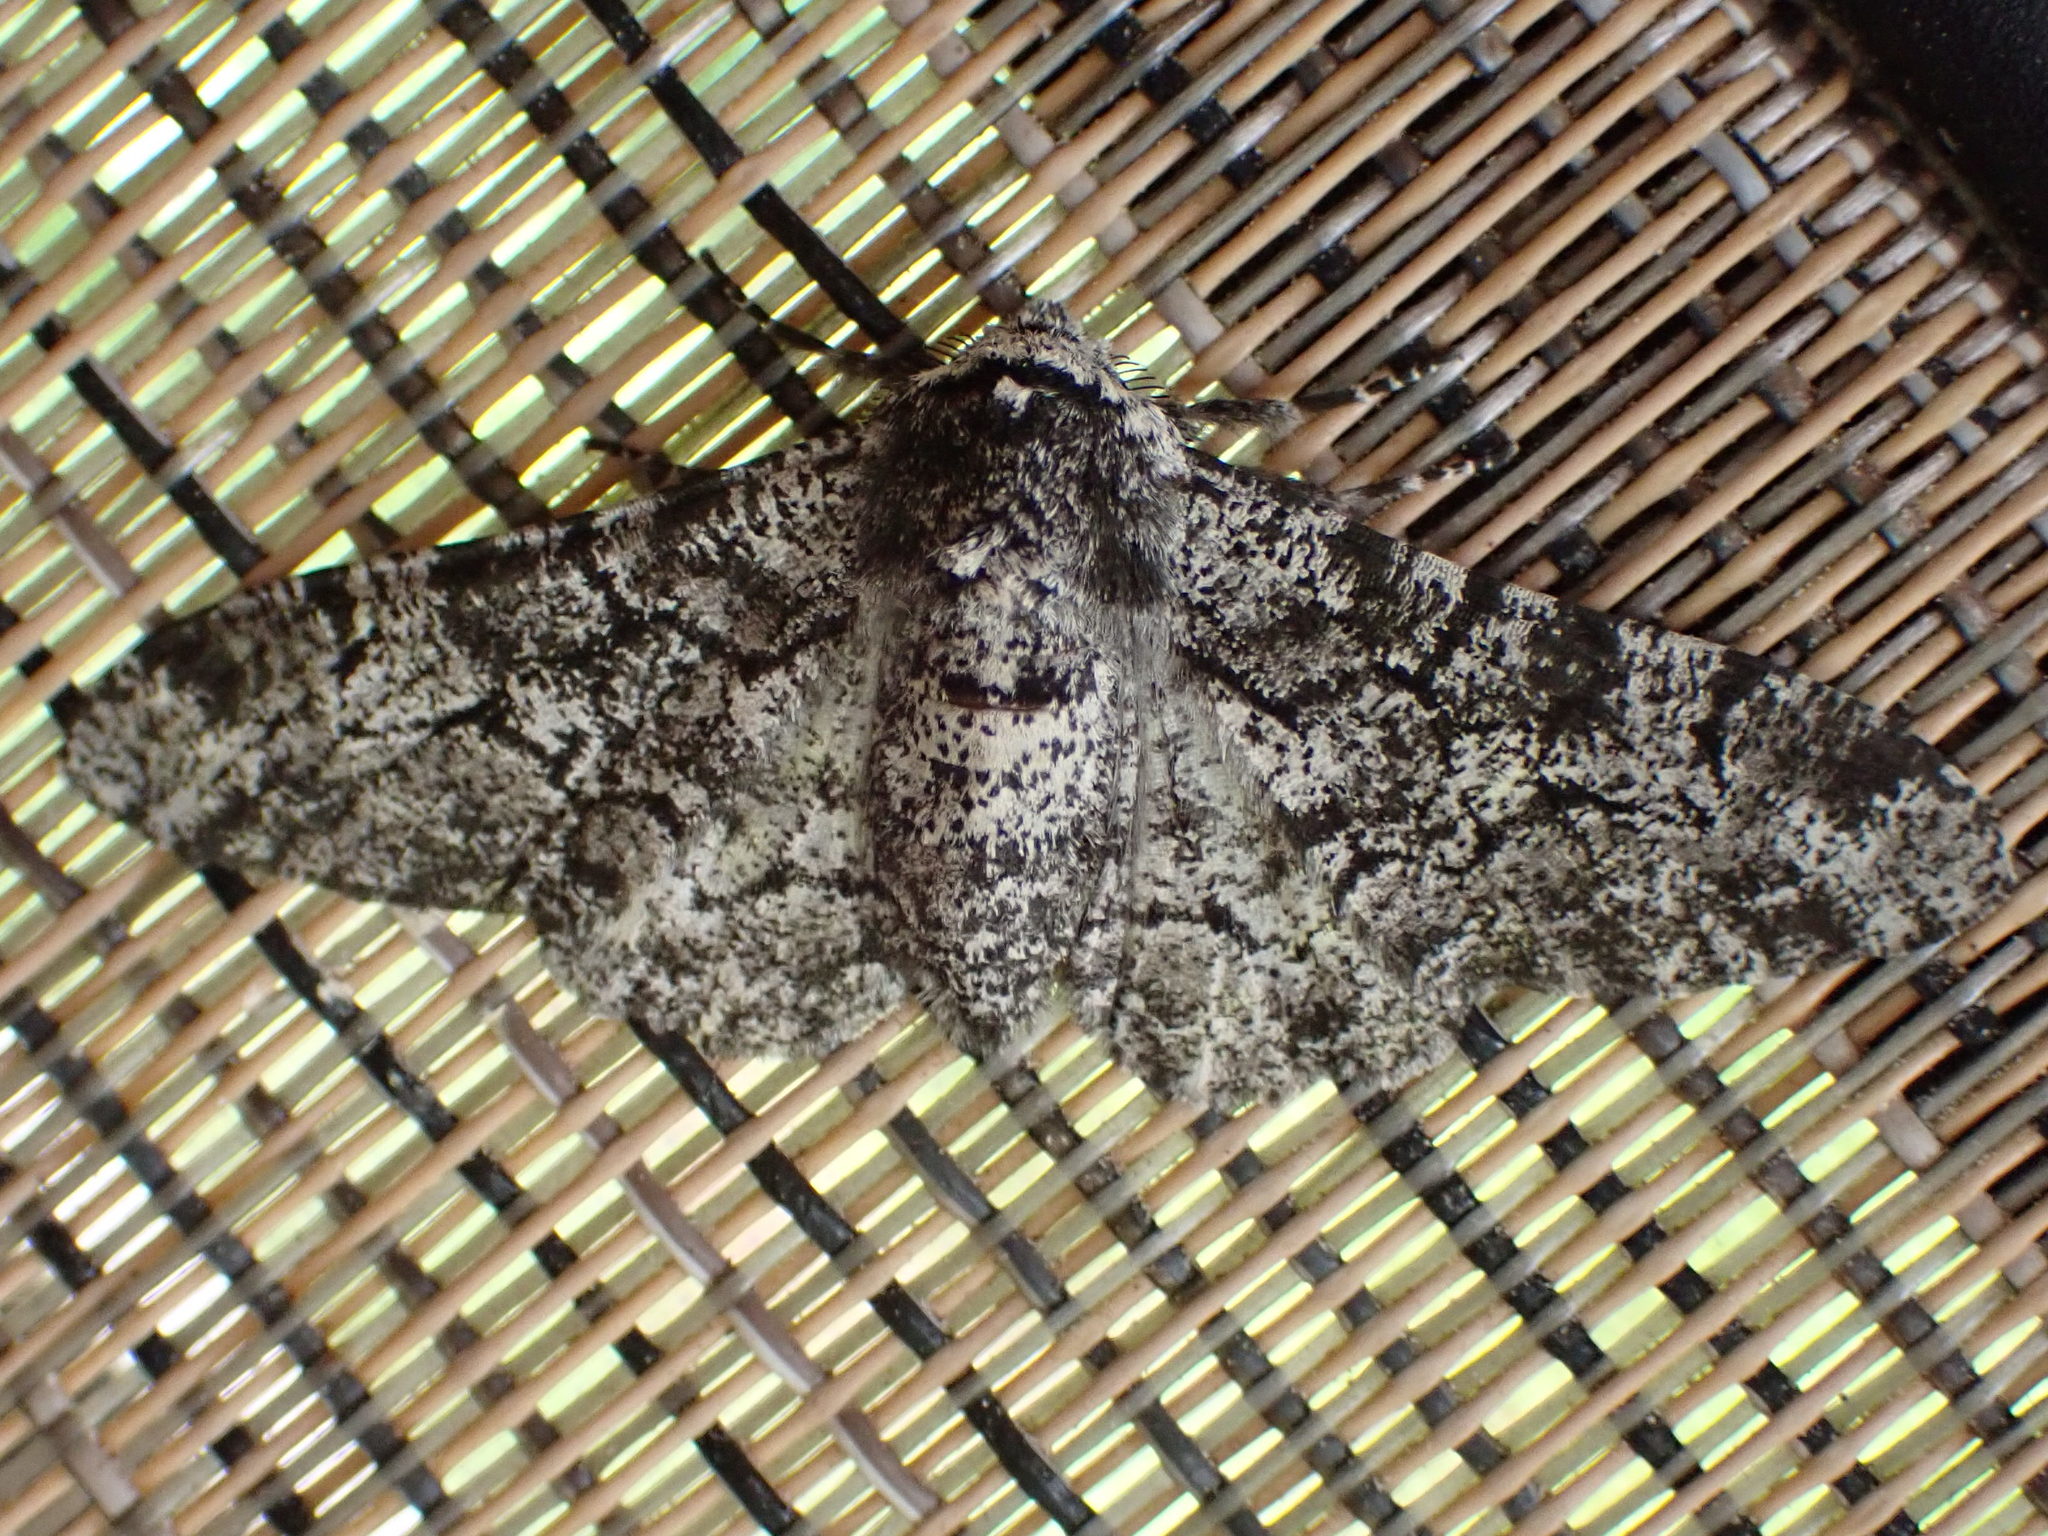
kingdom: Animalia
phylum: Arthropoda
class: Insecta
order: Lepidoptera
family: Geometridae
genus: Biston
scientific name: Biston betularia
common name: Peppered moth
